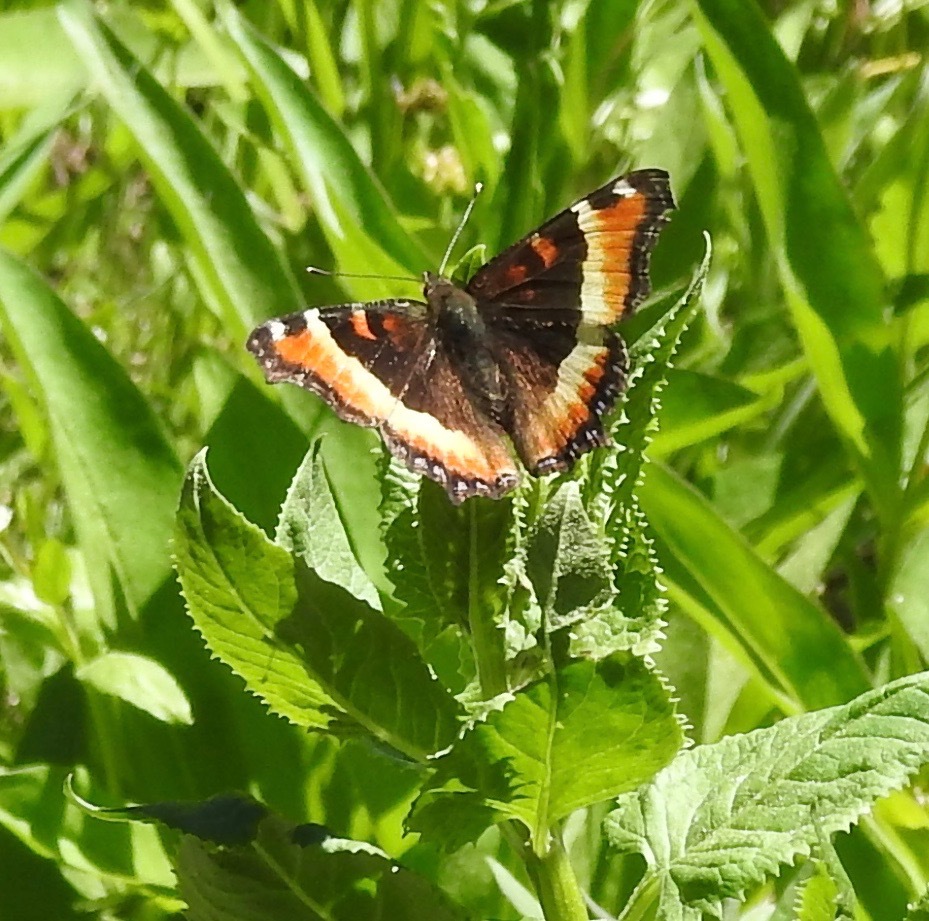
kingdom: Animalia
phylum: Arthropoda
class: Insecta
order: Lepidoptera
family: Nymphalidae
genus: Aglais
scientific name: Aglais milberti
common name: Milbert's tortoiseshell
